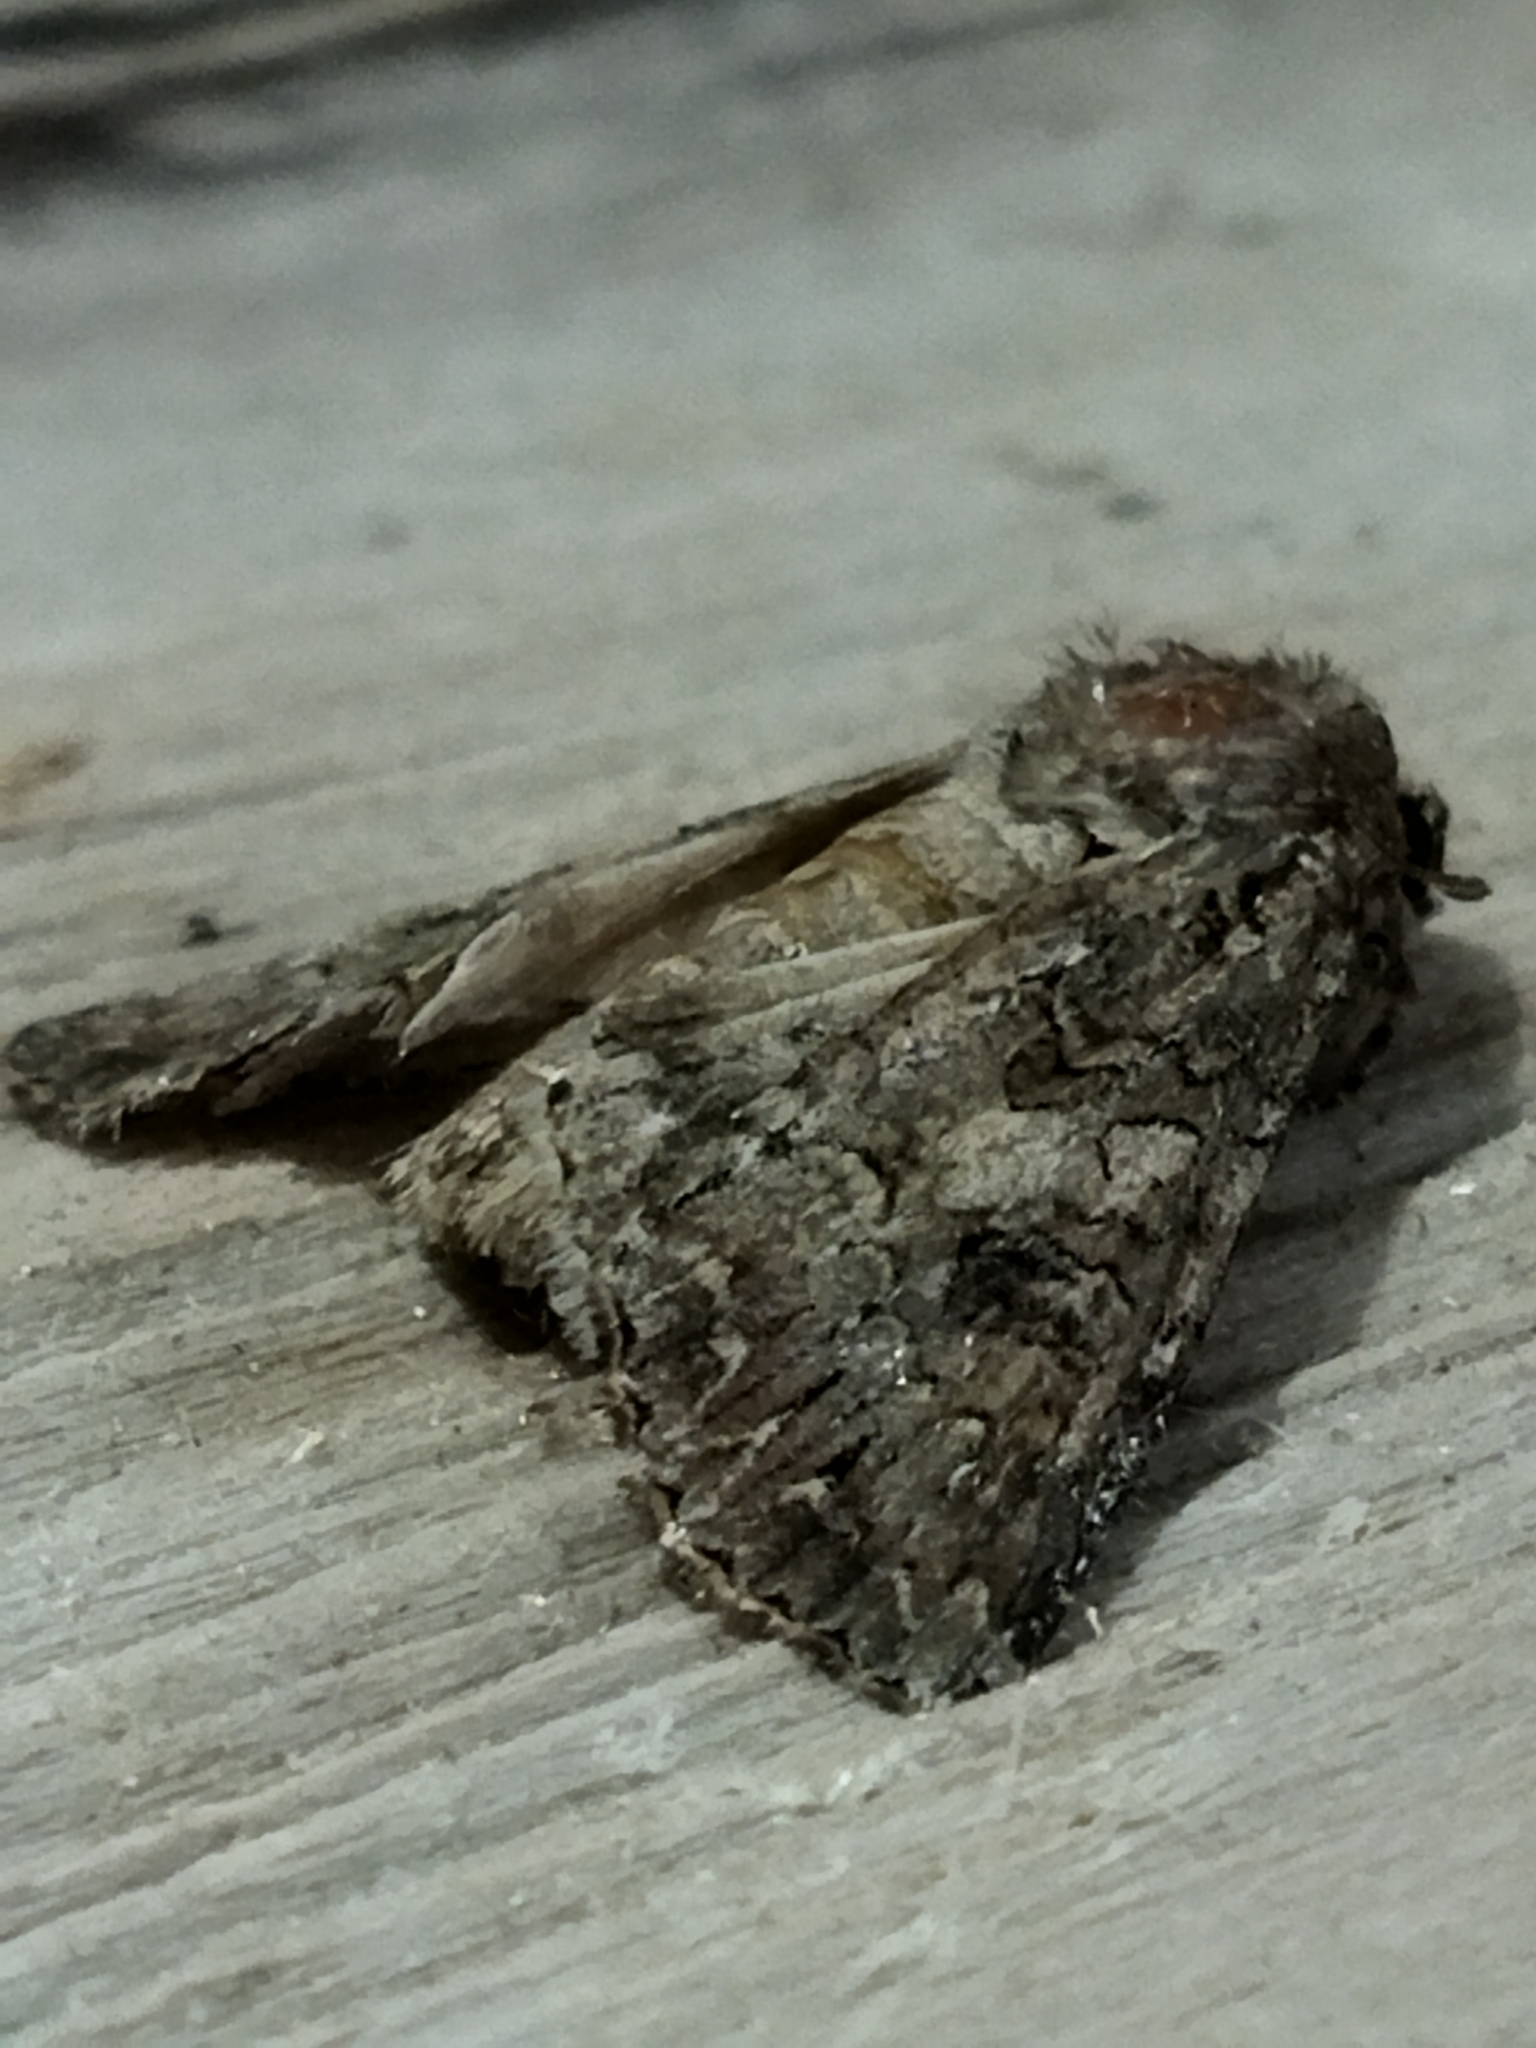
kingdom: Animalia
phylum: Arthropoda
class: Insecta
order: Lepidoptera
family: Noctuidae
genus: Anarta
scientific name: Anarta trifolii
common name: Clover cutworm moth
